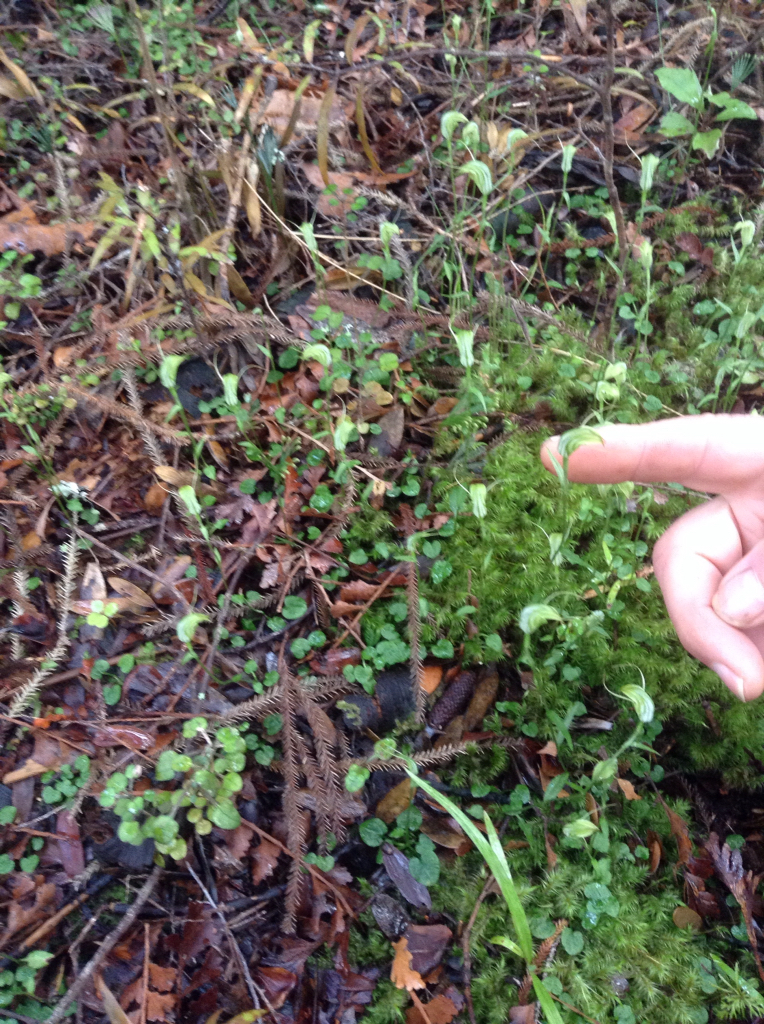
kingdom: Plantae
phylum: Tracheophyta
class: Liliopsida
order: Asparagales
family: Orchidaceae
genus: Pterostylis
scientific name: Pterostylis trullifolia
